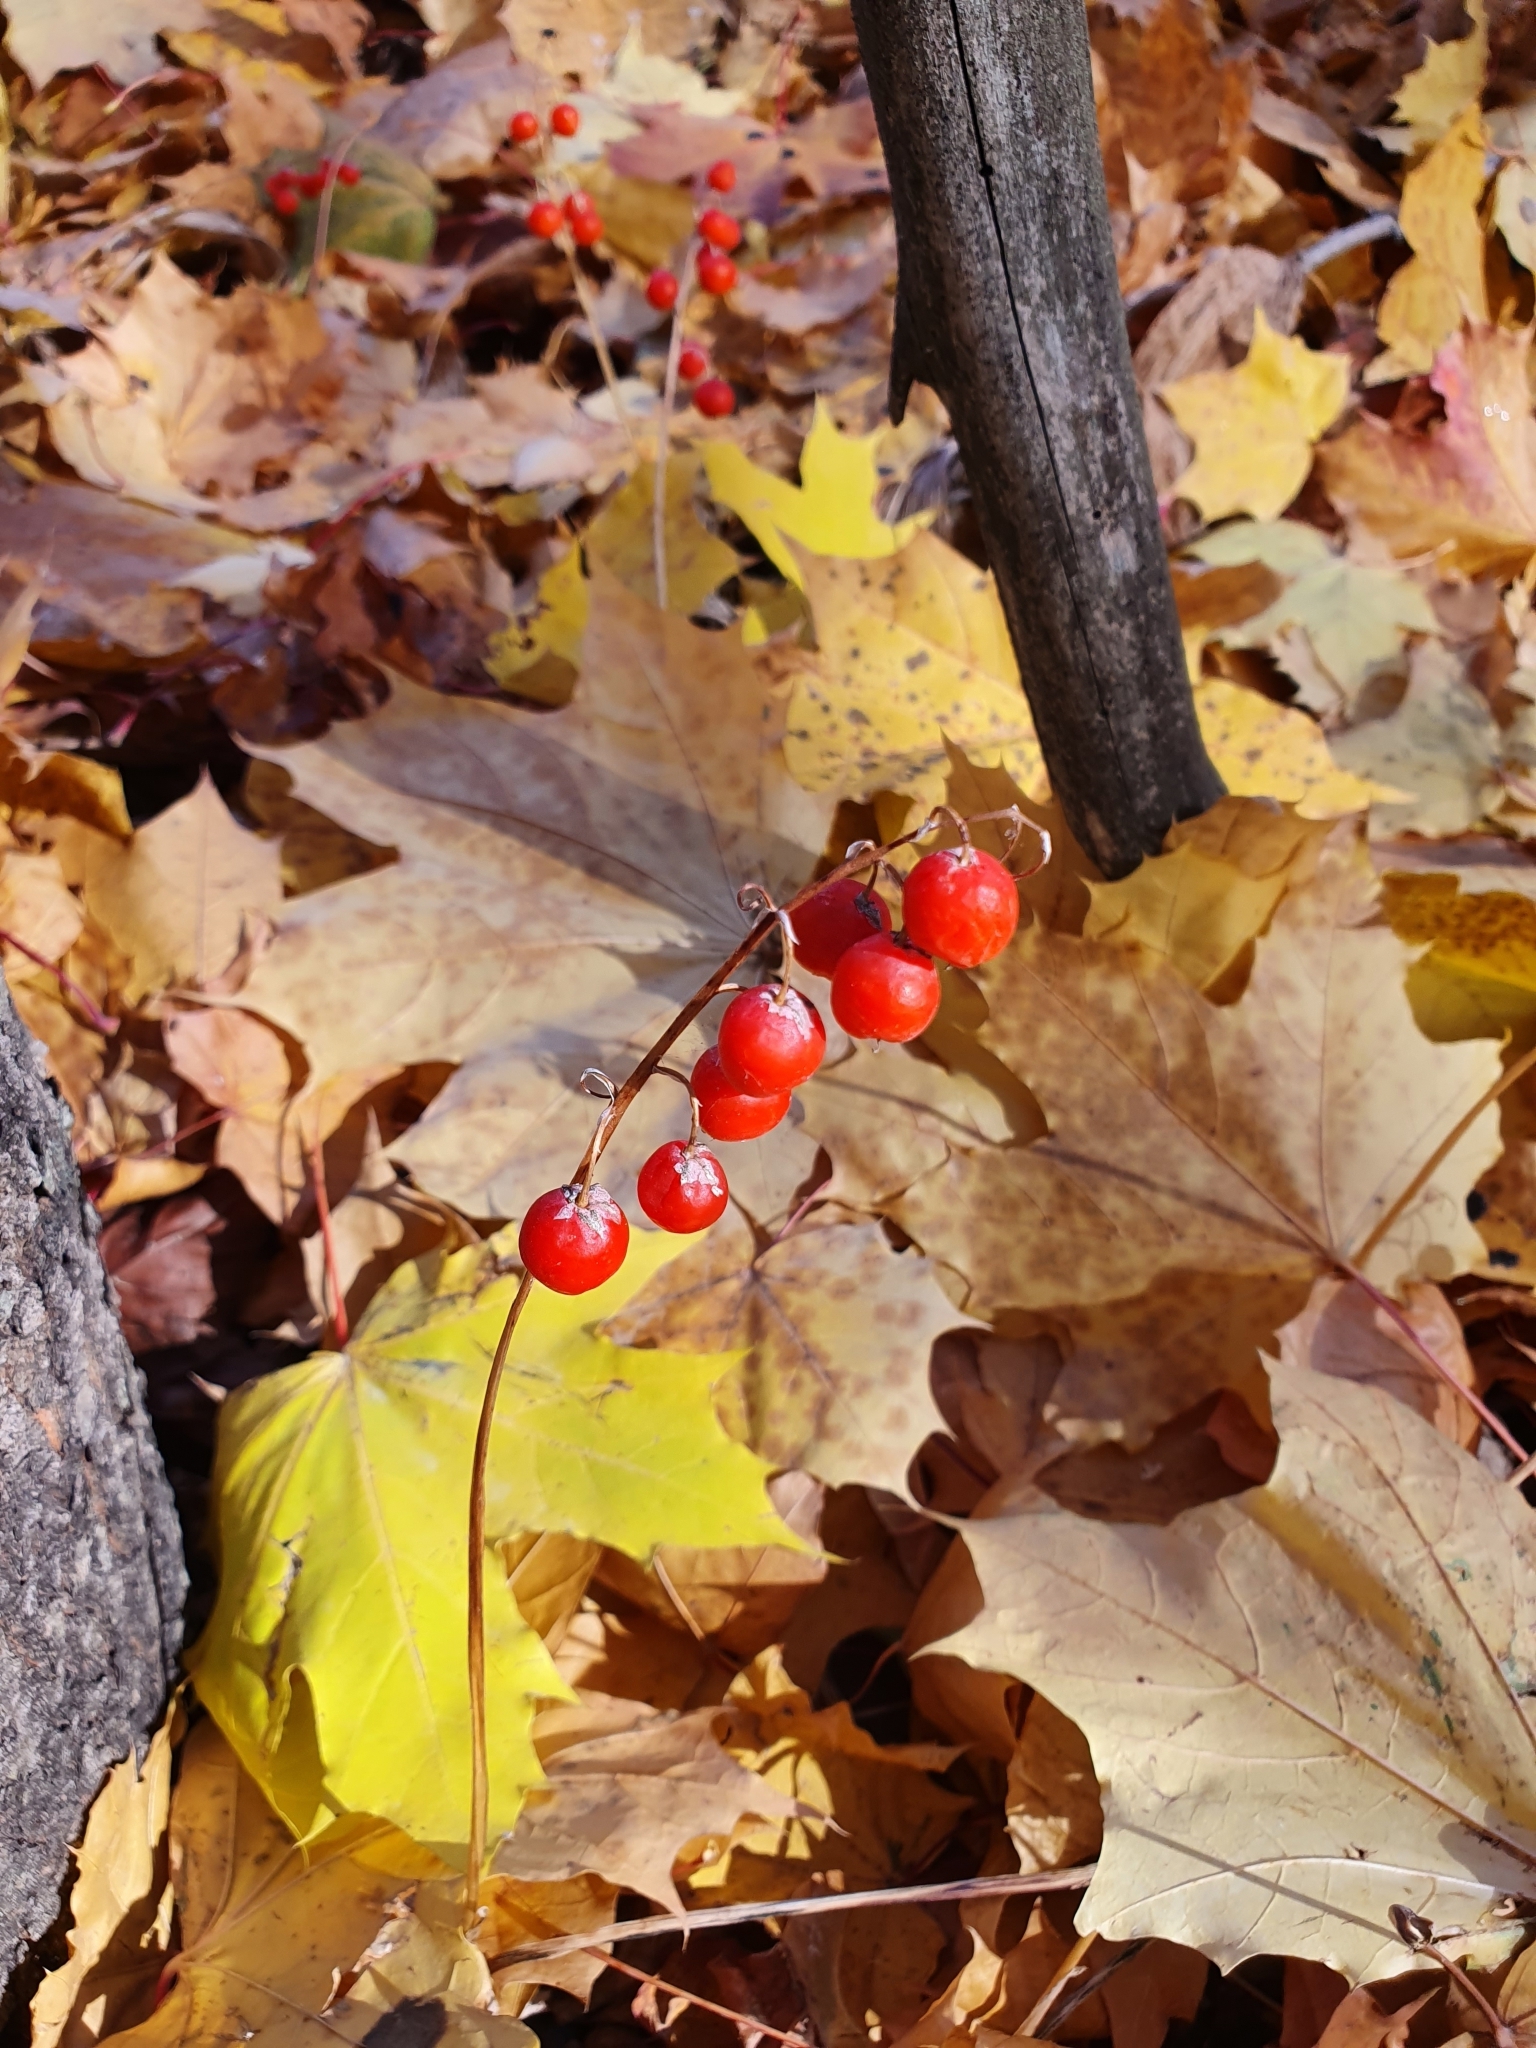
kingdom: Plantae
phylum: Tracheophyta
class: Liliopsida
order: Asparagales
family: Asparagaceae
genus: Convallaria
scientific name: Convallaria majalis
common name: Lily-of-the-valley
